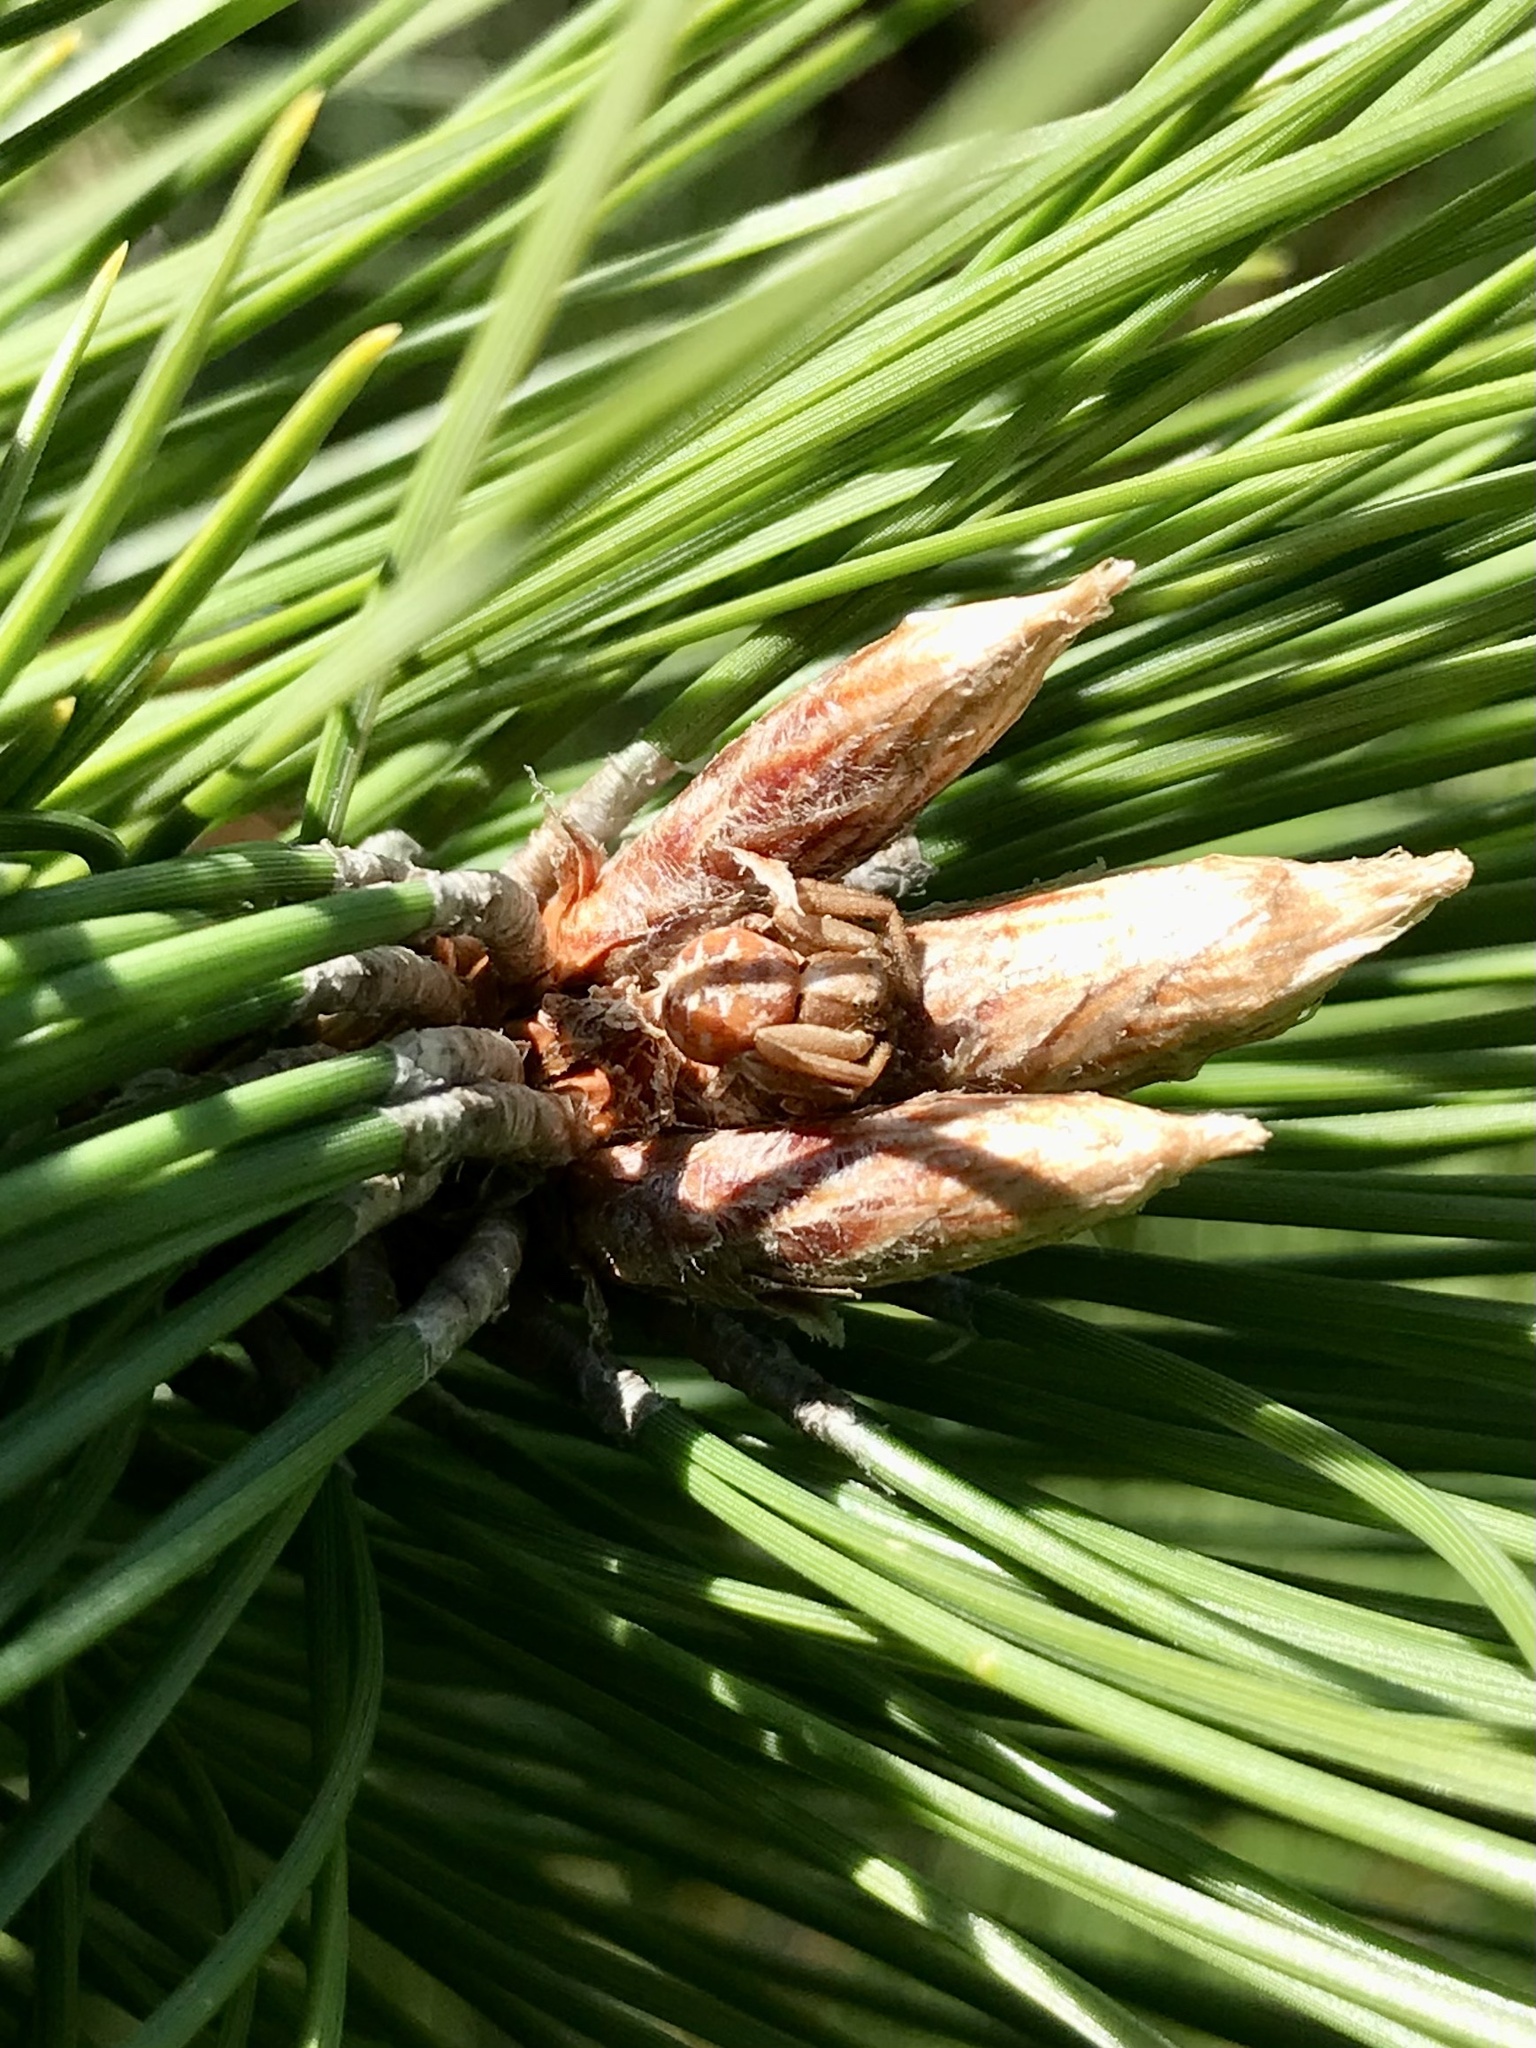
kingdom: Animalia
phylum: Arthropoda
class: Arachnida
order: Araneae
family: Thomisidae
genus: Xysticus
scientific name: Xysticus punctatus
